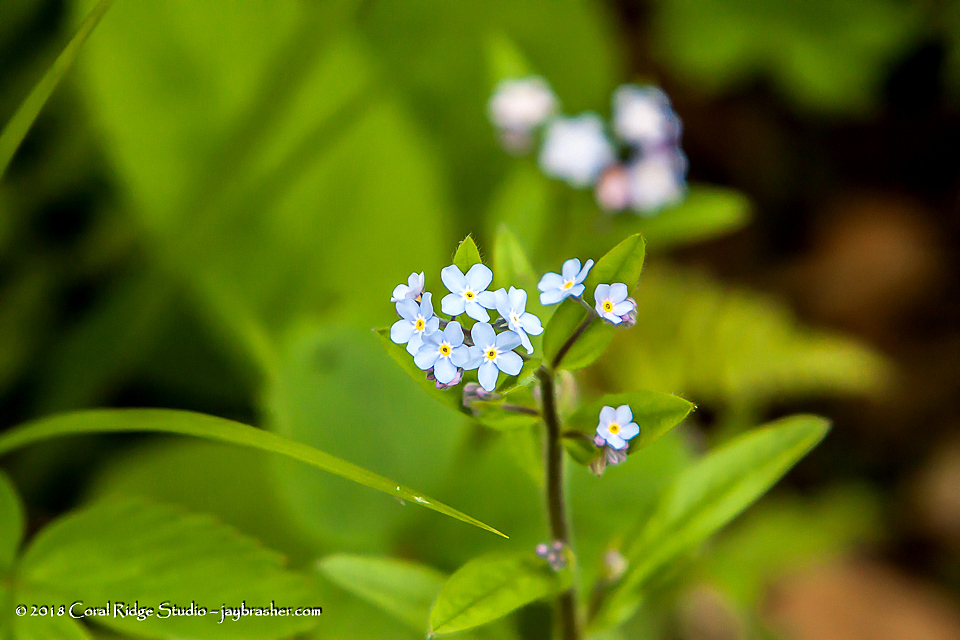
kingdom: Plantae
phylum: Tracheophyta
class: Magnoliopsida
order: Boraginales
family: Boraginaceae
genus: Myosotis
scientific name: Myosotis sylvatica
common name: Wood forget-me-not
